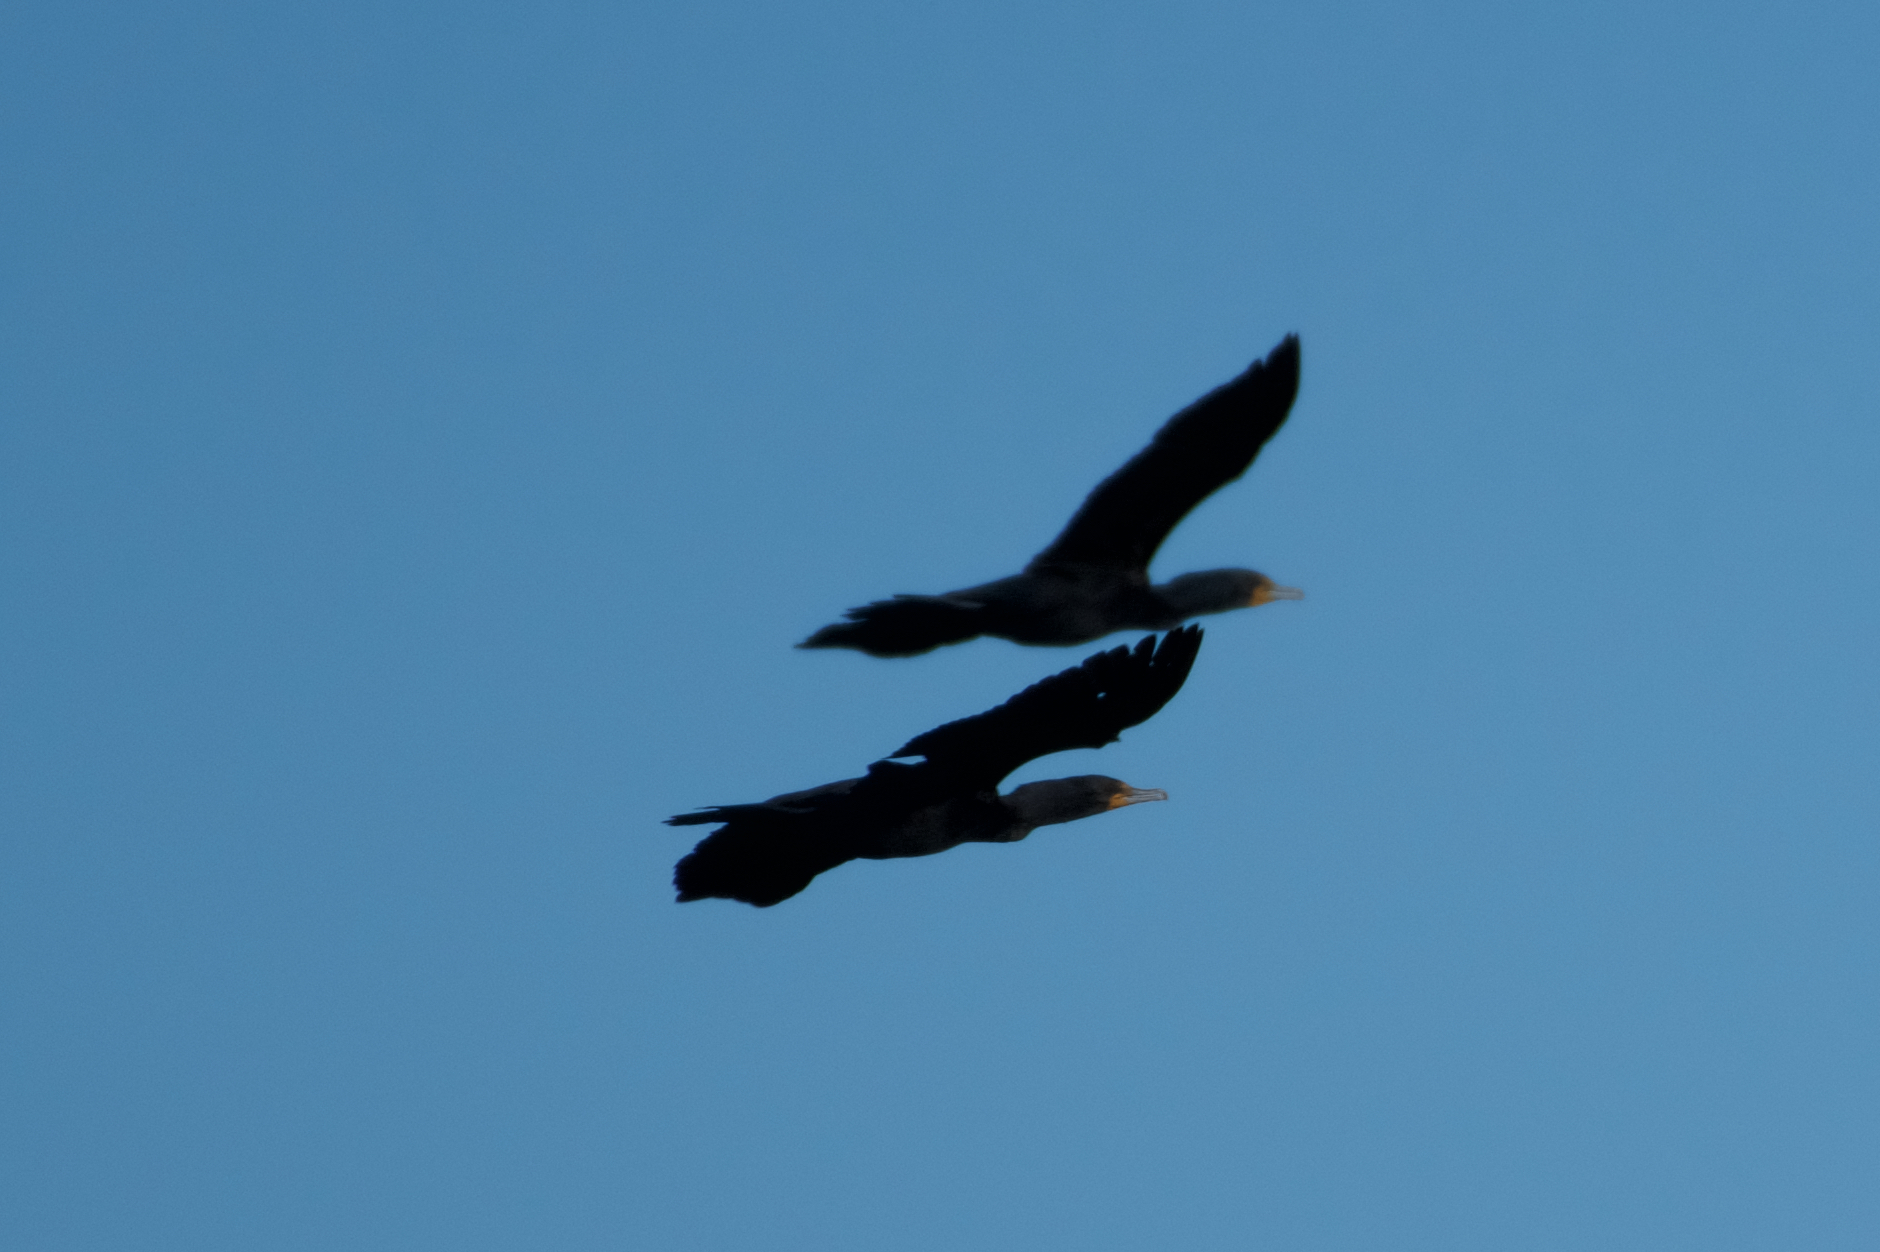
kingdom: Animalia
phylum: Chordata
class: Aves
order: Suliformes
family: Phalacrocoracidae
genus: Phalacrocorax
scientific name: Phalacrocorax auritus
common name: Double-crested cormorant
